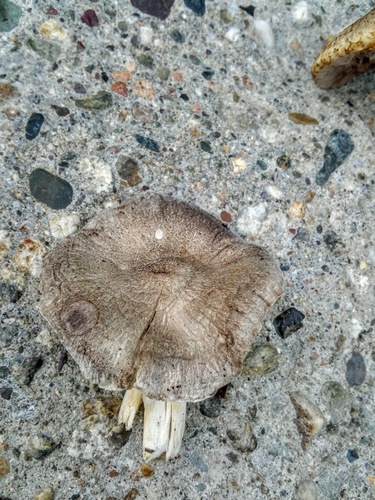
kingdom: Fungi
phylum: Basidiomycota
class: Agaricomycetes
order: Agaricales
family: Tricholomataceae
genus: Tricholoma
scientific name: Tricholoma terreum
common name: Grey knight
